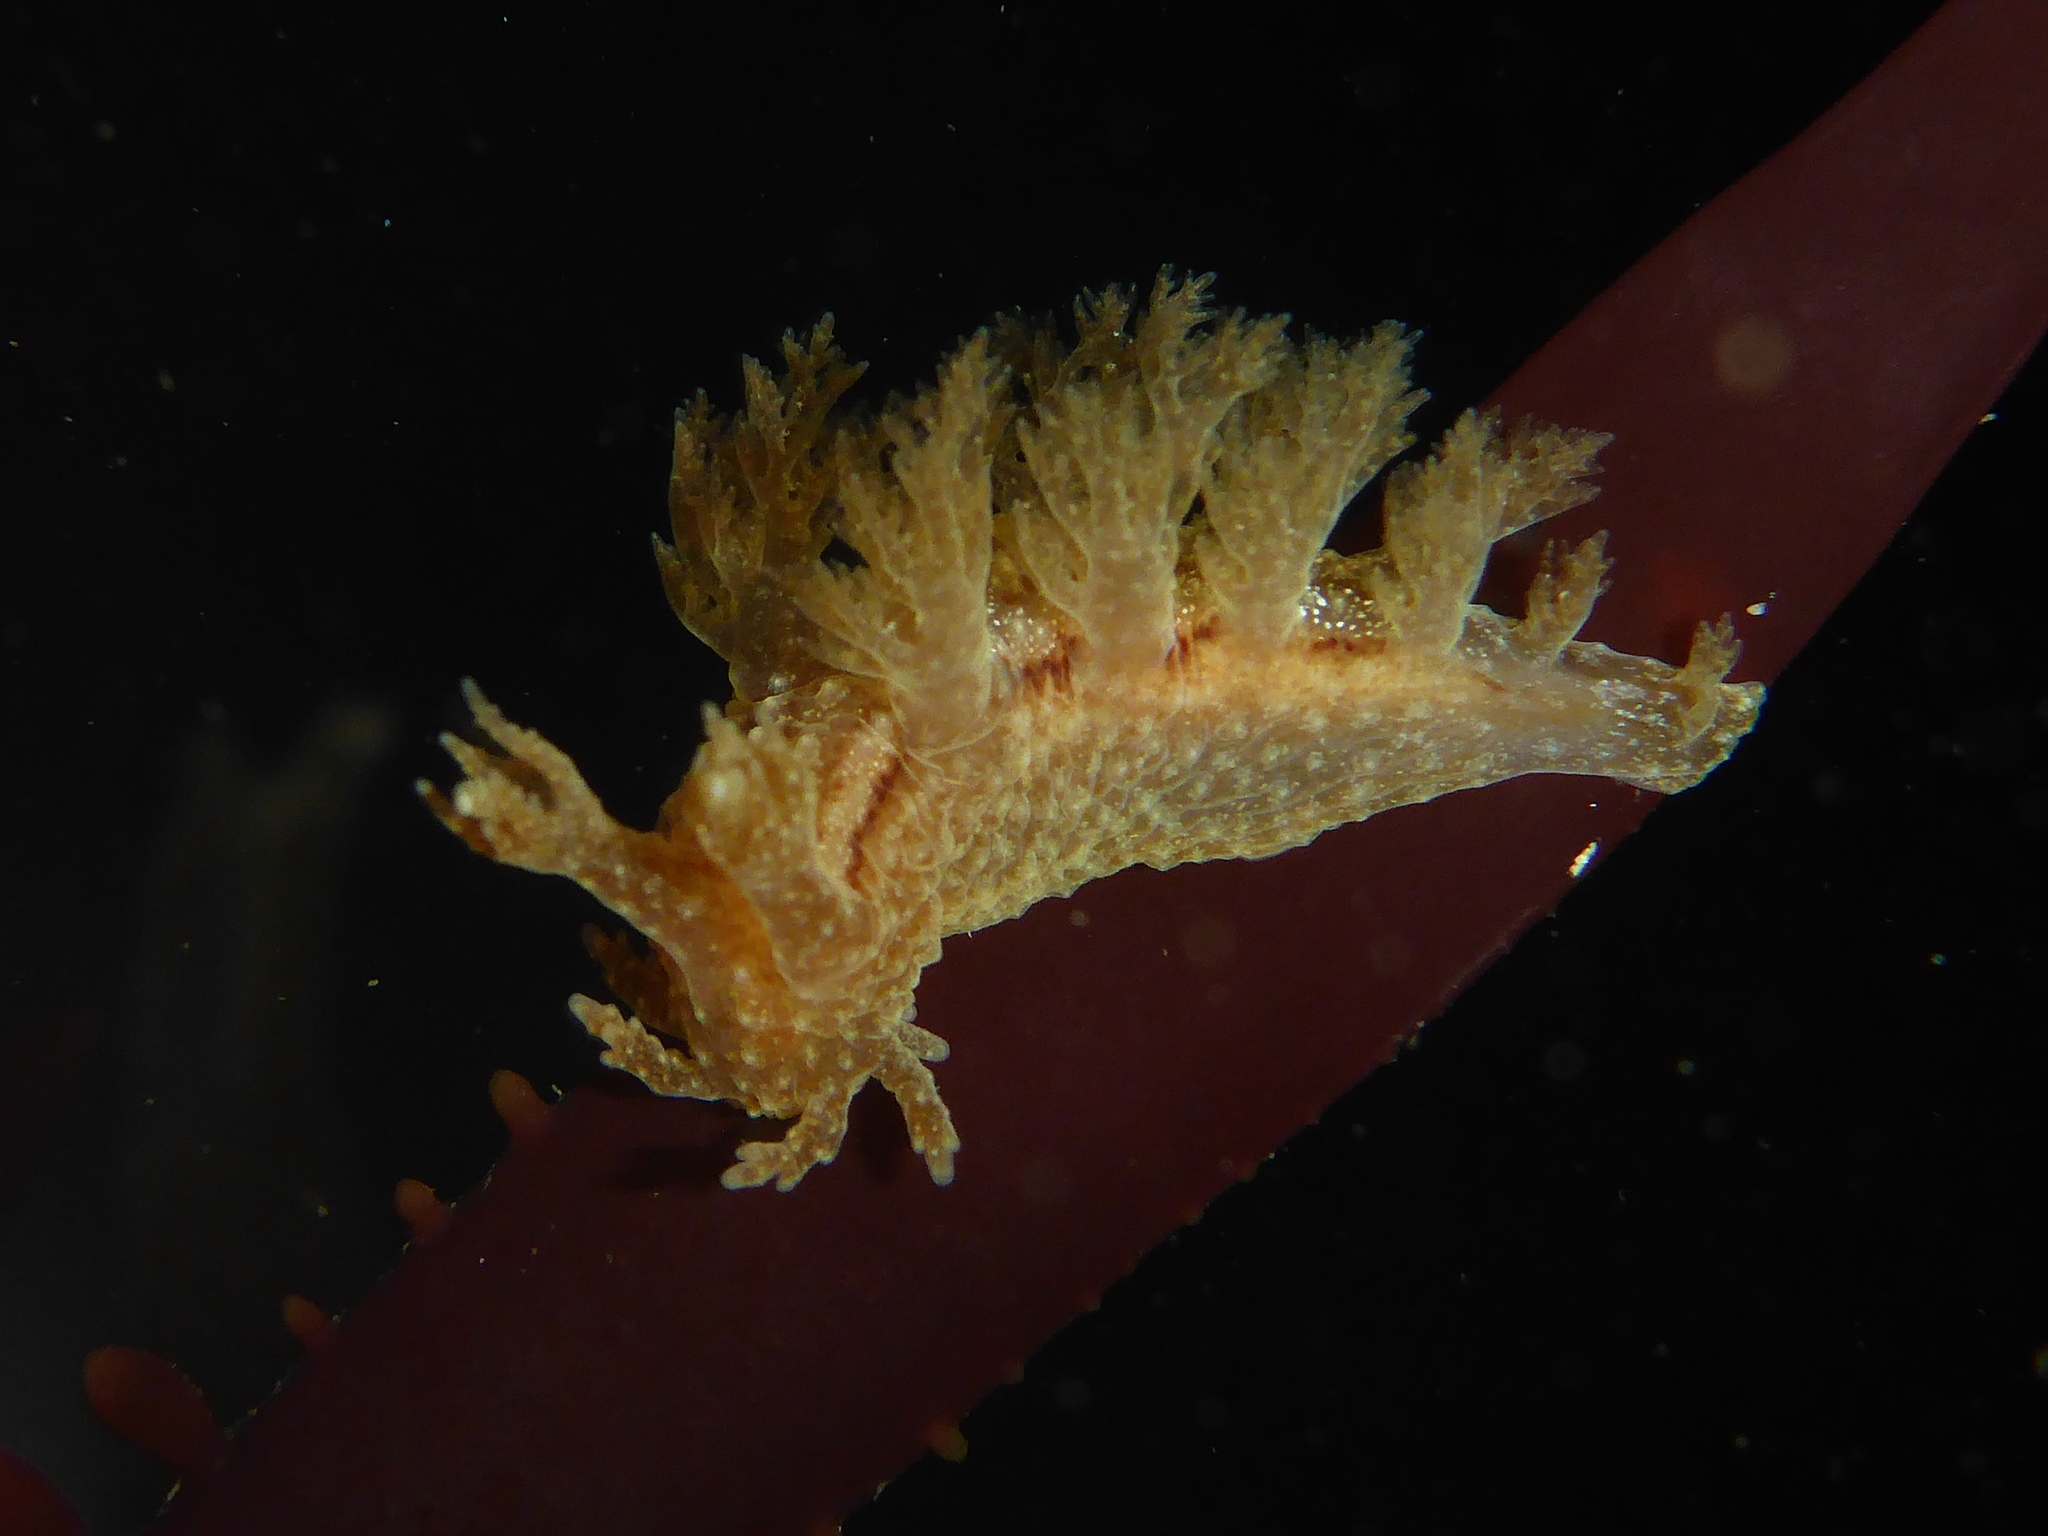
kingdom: Animalia
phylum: Mollusca
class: Gastropoda
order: Nudibranchia
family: Dendronotidae
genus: Dendronotus
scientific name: Dendronotus subramosus
